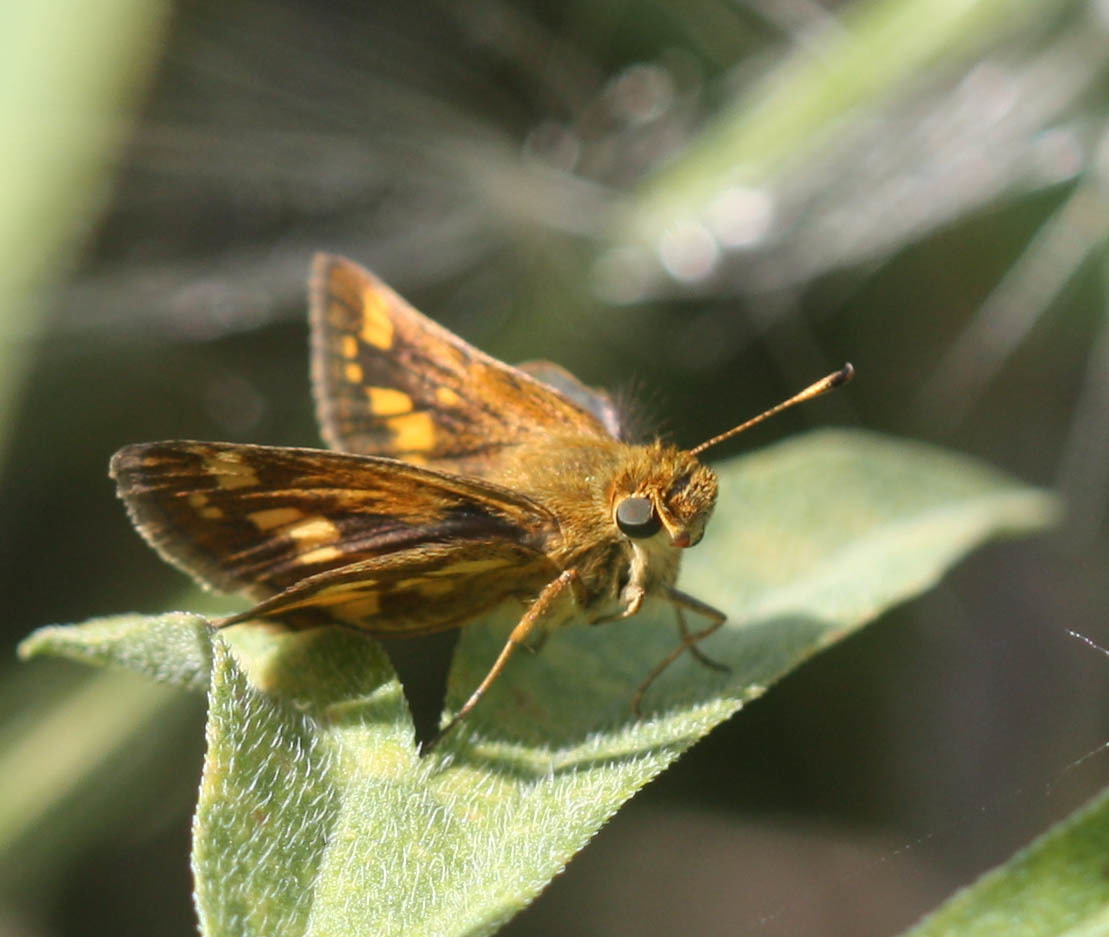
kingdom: Animalia
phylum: Arthropoda
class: Insecta
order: Lepidoptera
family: Hesperiidae
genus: Polites
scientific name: Polites coras
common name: Peck's skipper
